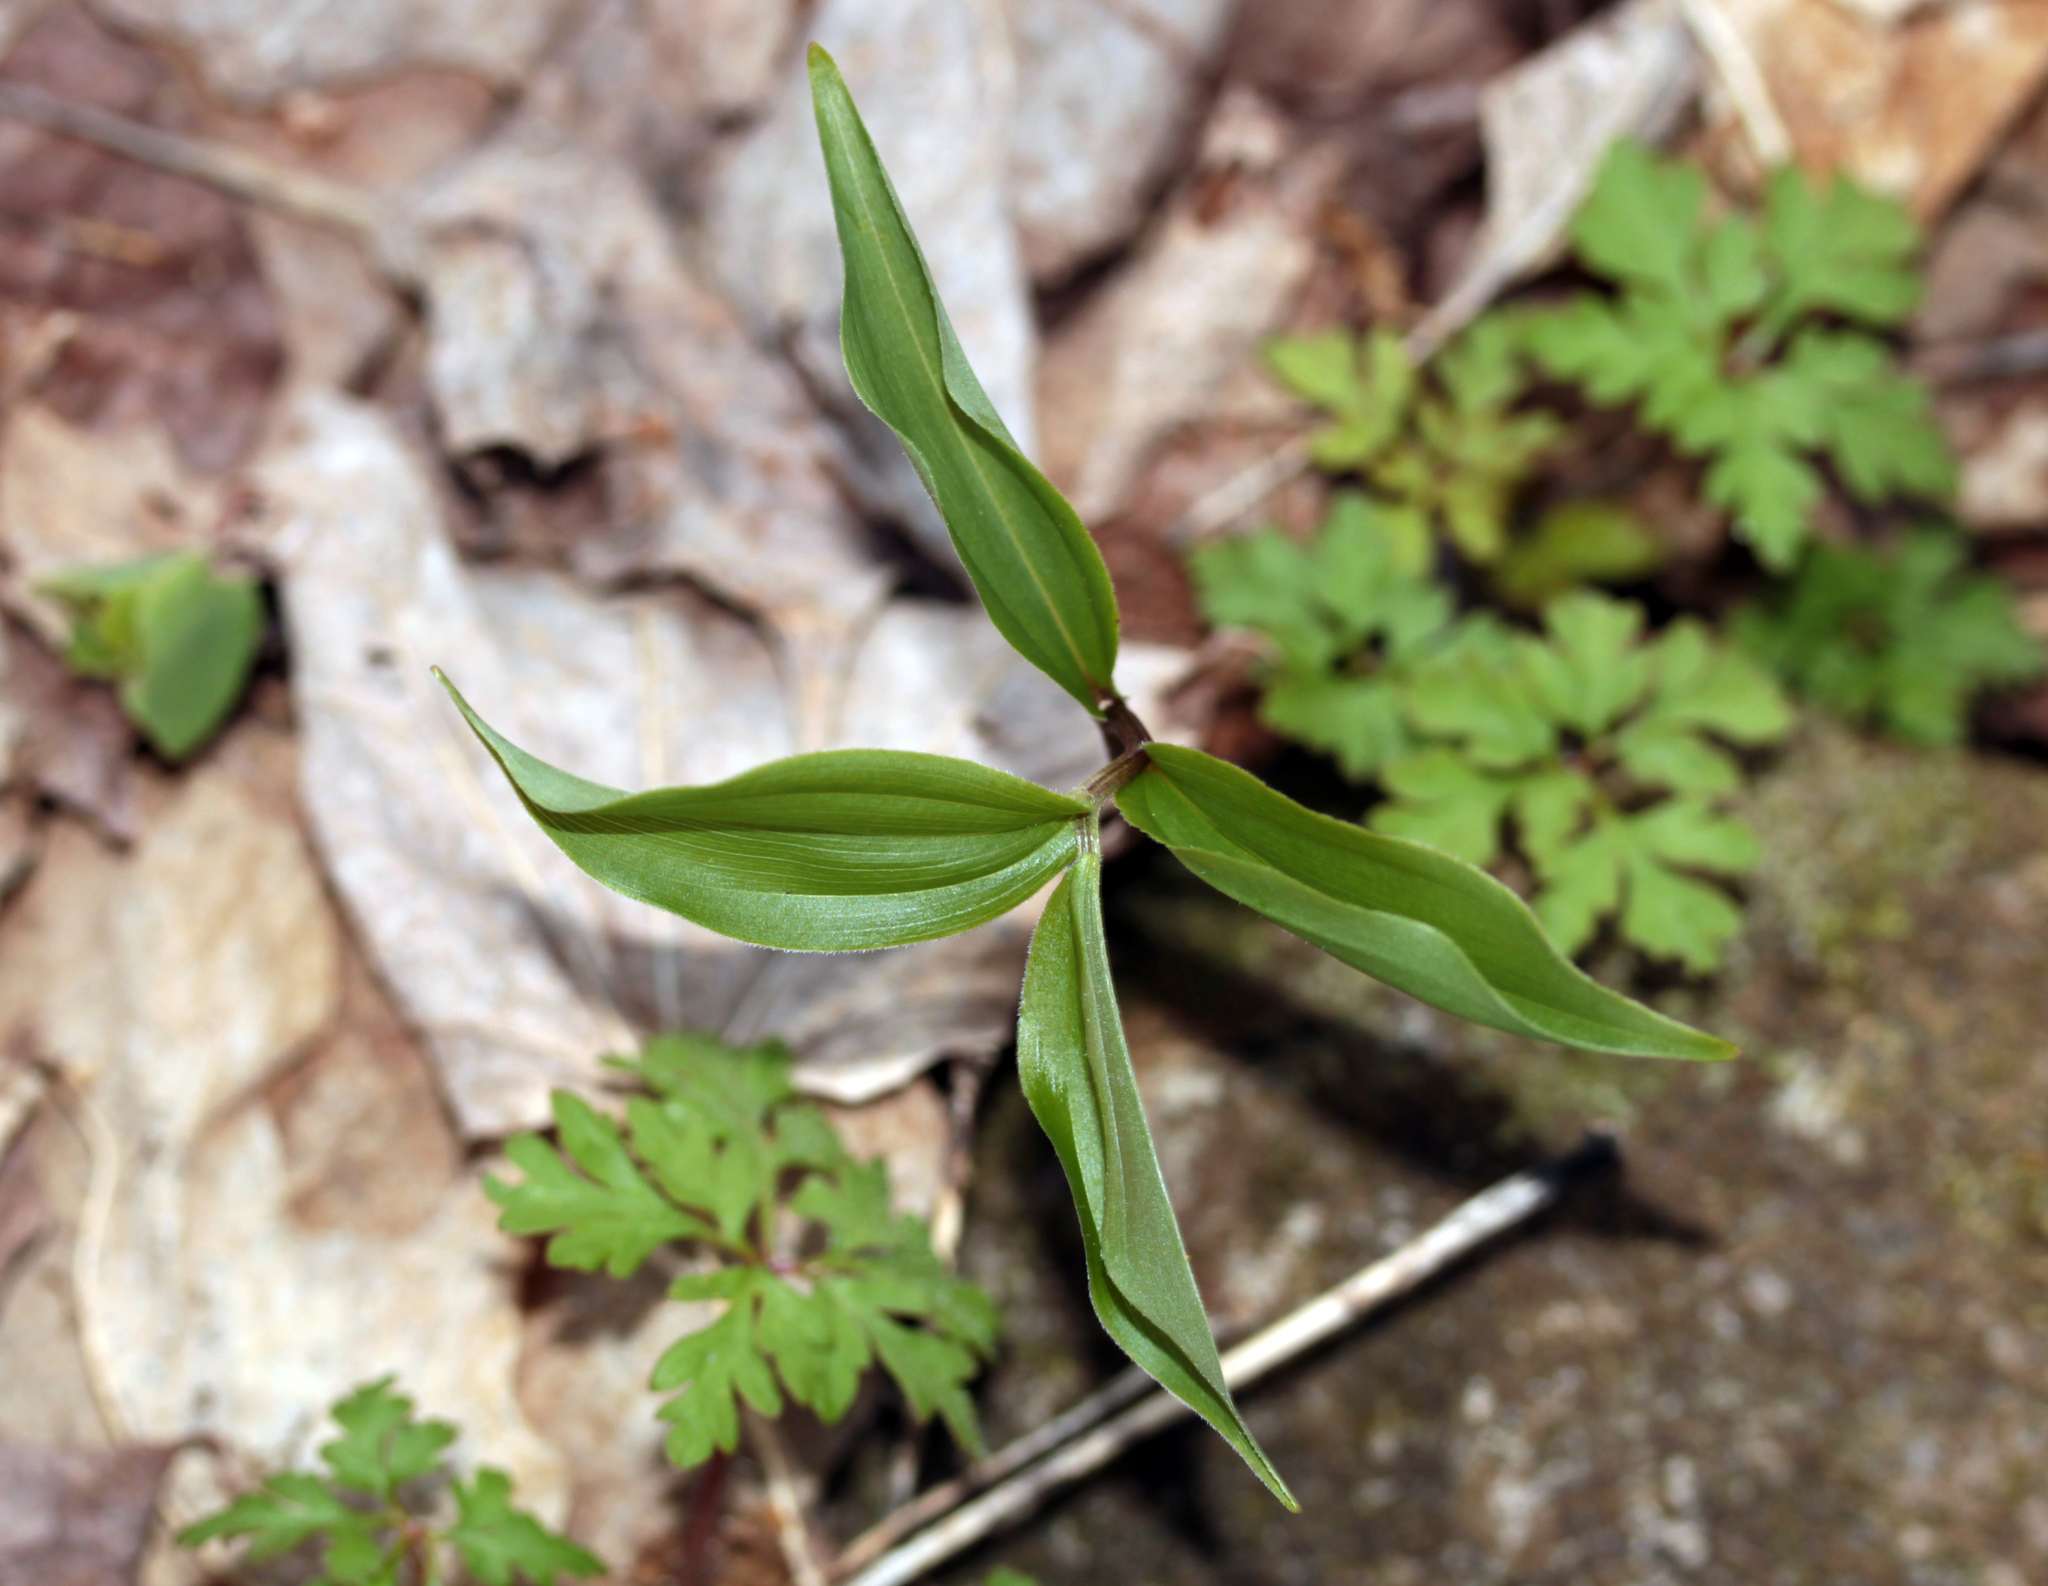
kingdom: Plantae
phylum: Tracheophyta
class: Liliopsida
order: Asparagales
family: Asparagaceae
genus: Maianthemum
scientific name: Maianthemum racemosum
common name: False spikenard
